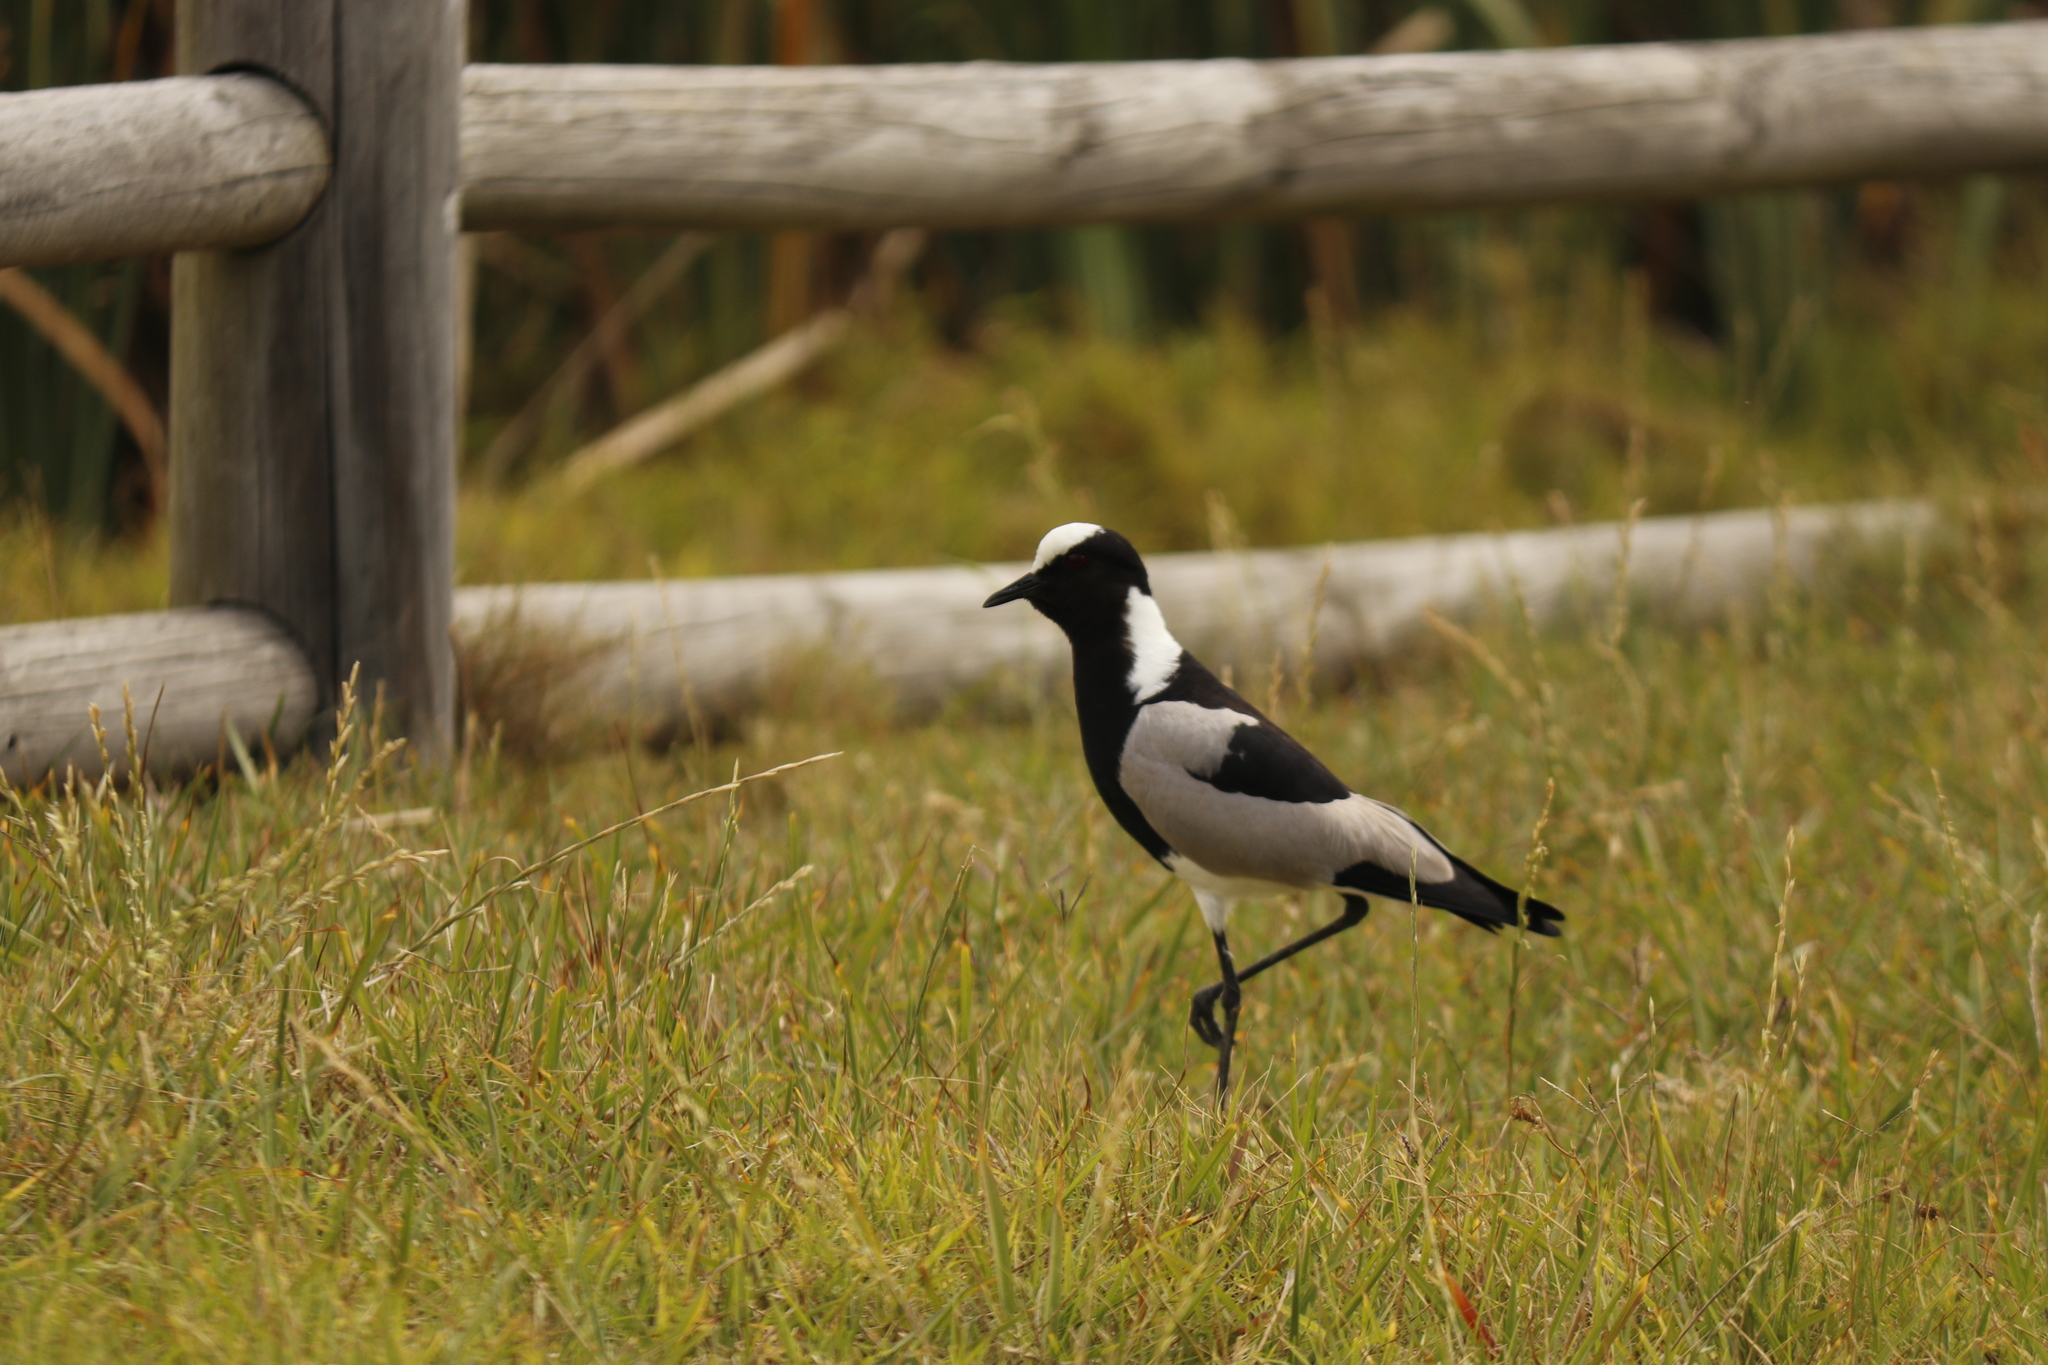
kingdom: Animalia
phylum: Chordata
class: Aves
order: Charadriiformes
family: Charadriidae
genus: Vanellus
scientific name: Vanellus armatus
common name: Blacksmith lapwing
